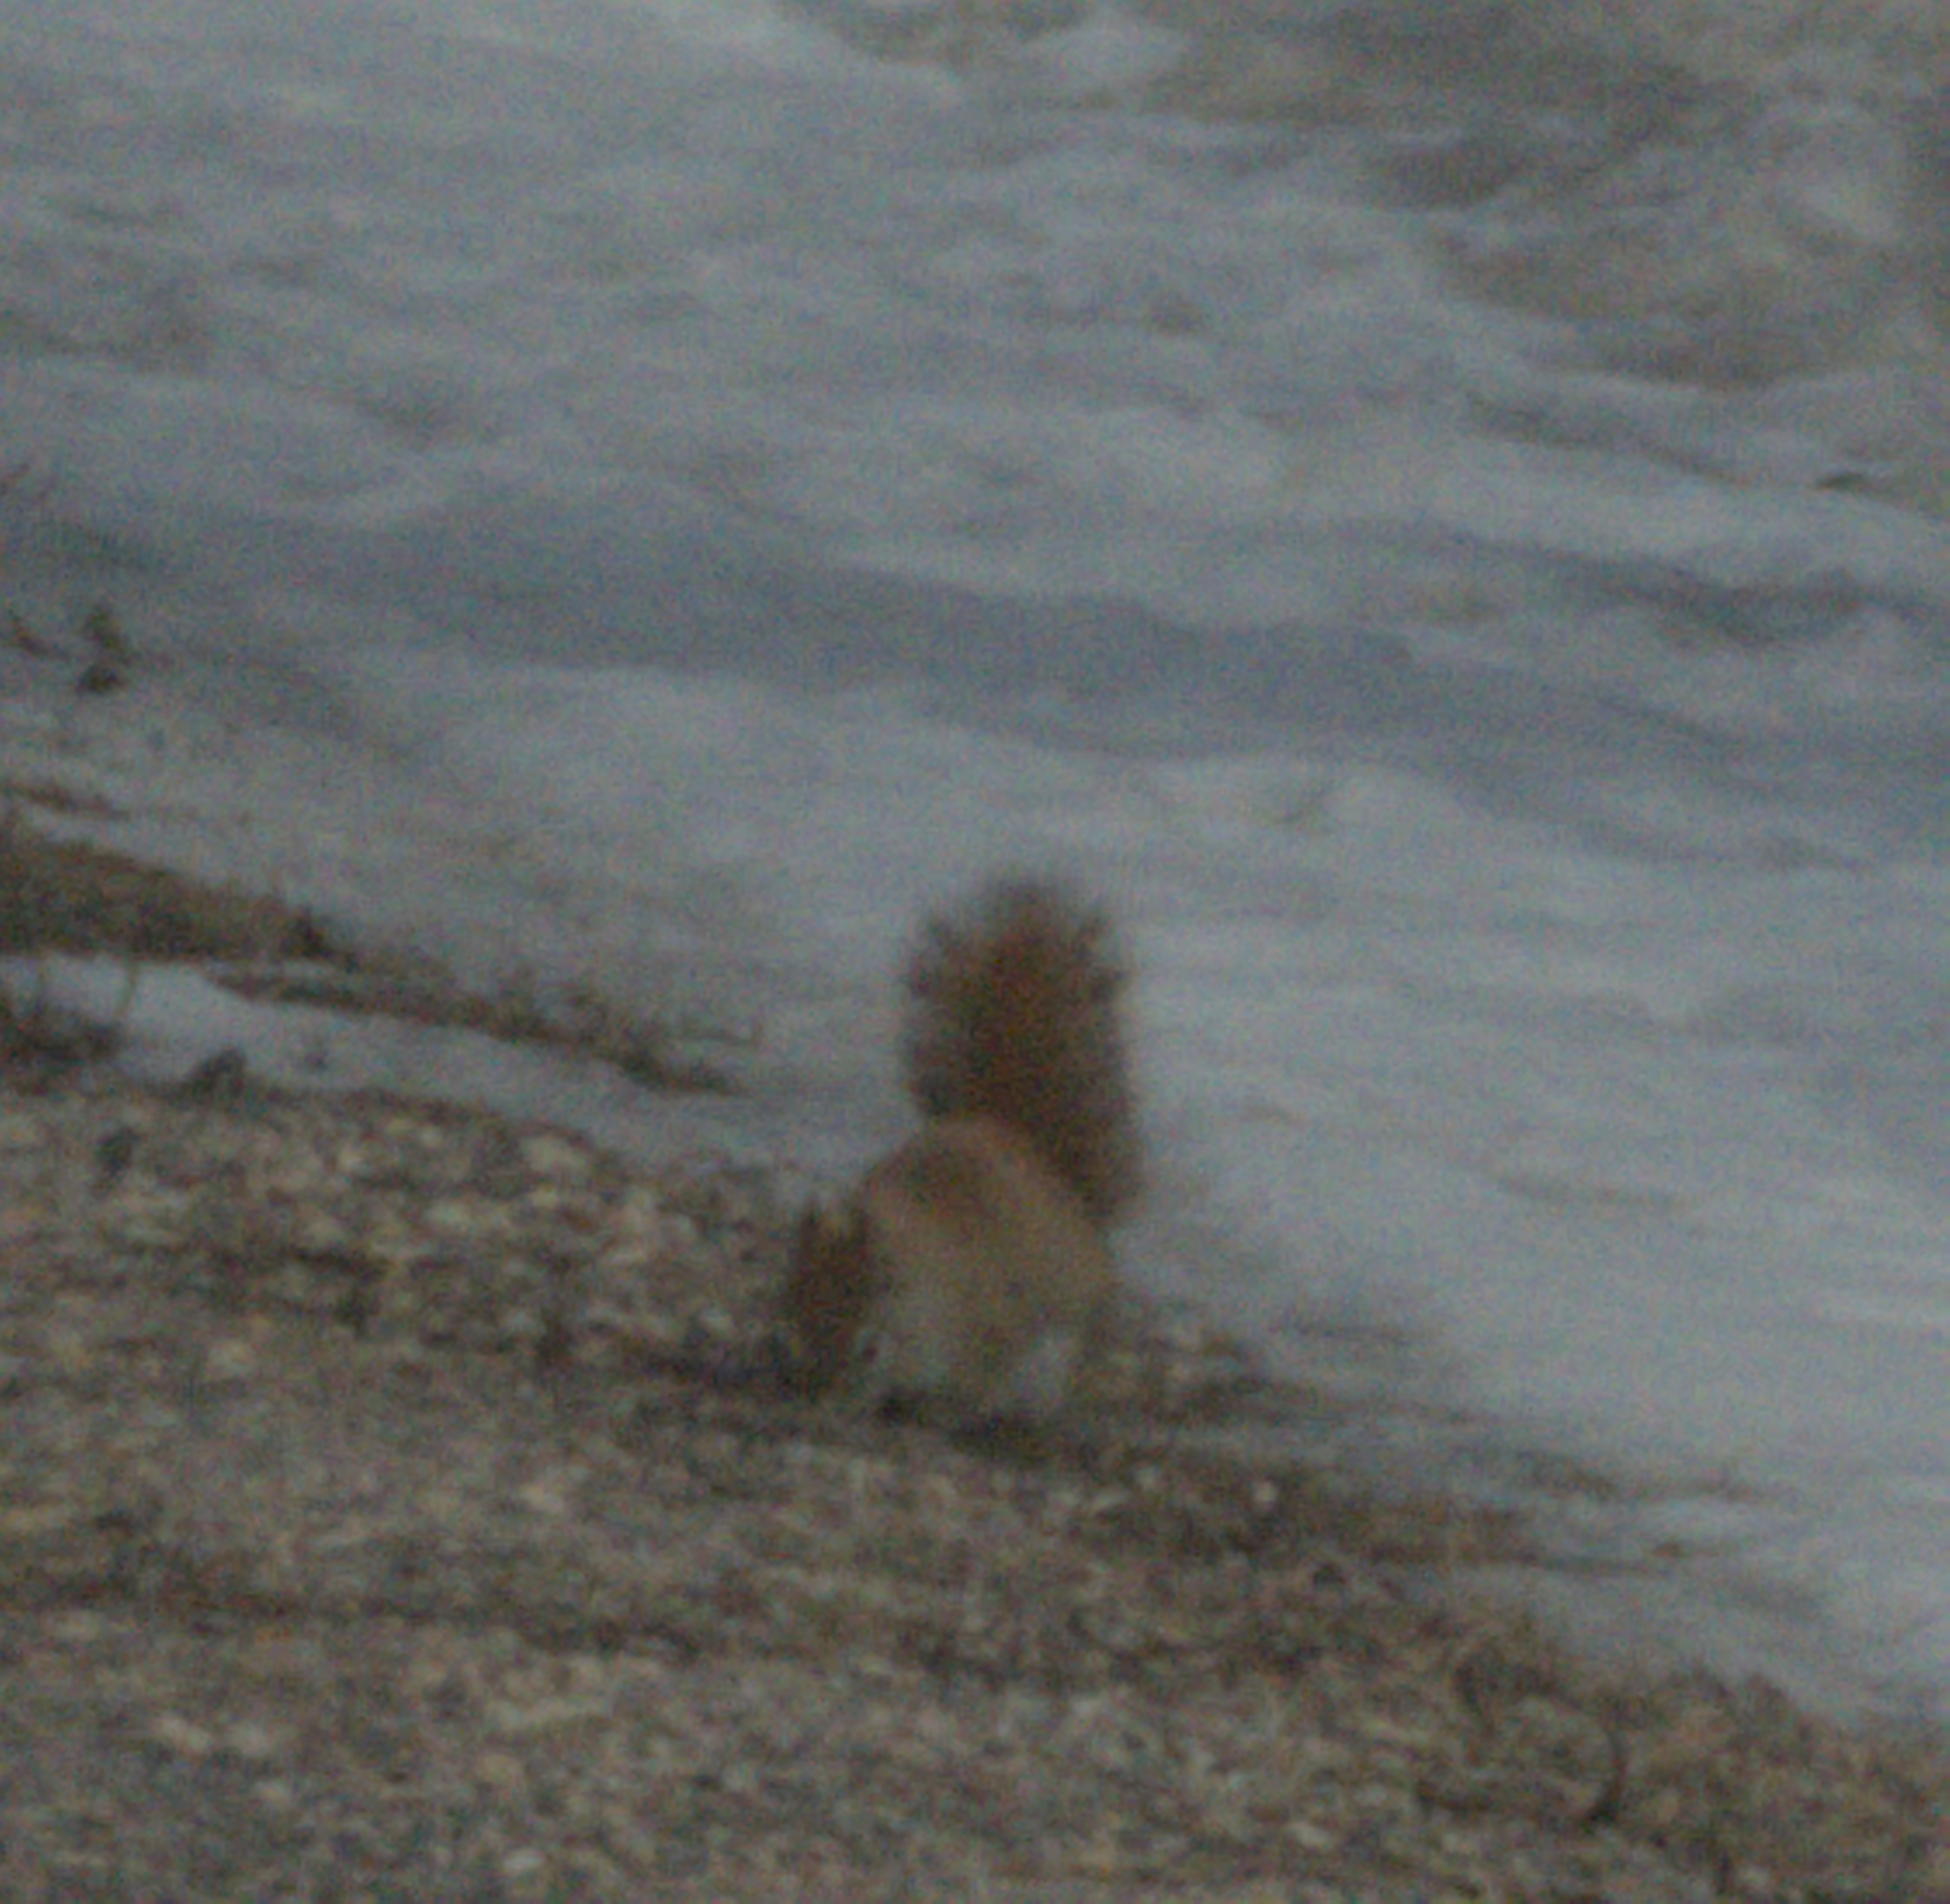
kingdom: Animalia
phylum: Chordata
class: Mammalia
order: Rodentia
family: Sciuridae
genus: Tamiasciurus
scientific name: Tamiasciurus hudsonicus
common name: Red squirrel
